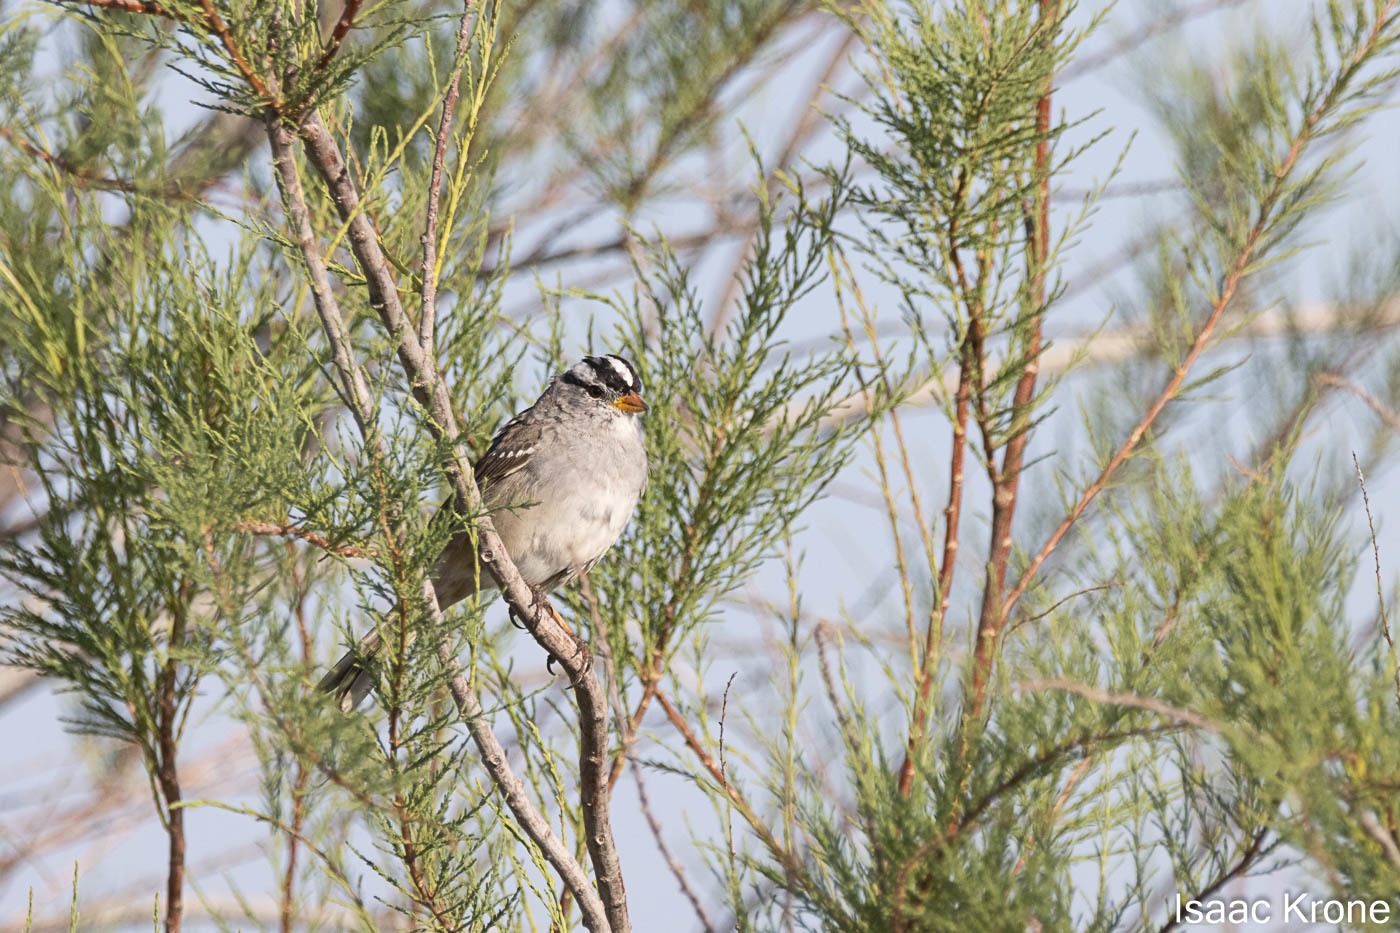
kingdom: Animalia
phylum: Chordata
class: Aves
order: Passeriformes
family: Passerellidae
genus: Zonotrichia
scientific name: Zonotrichia leucophrys
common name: White-crowned sparrow
